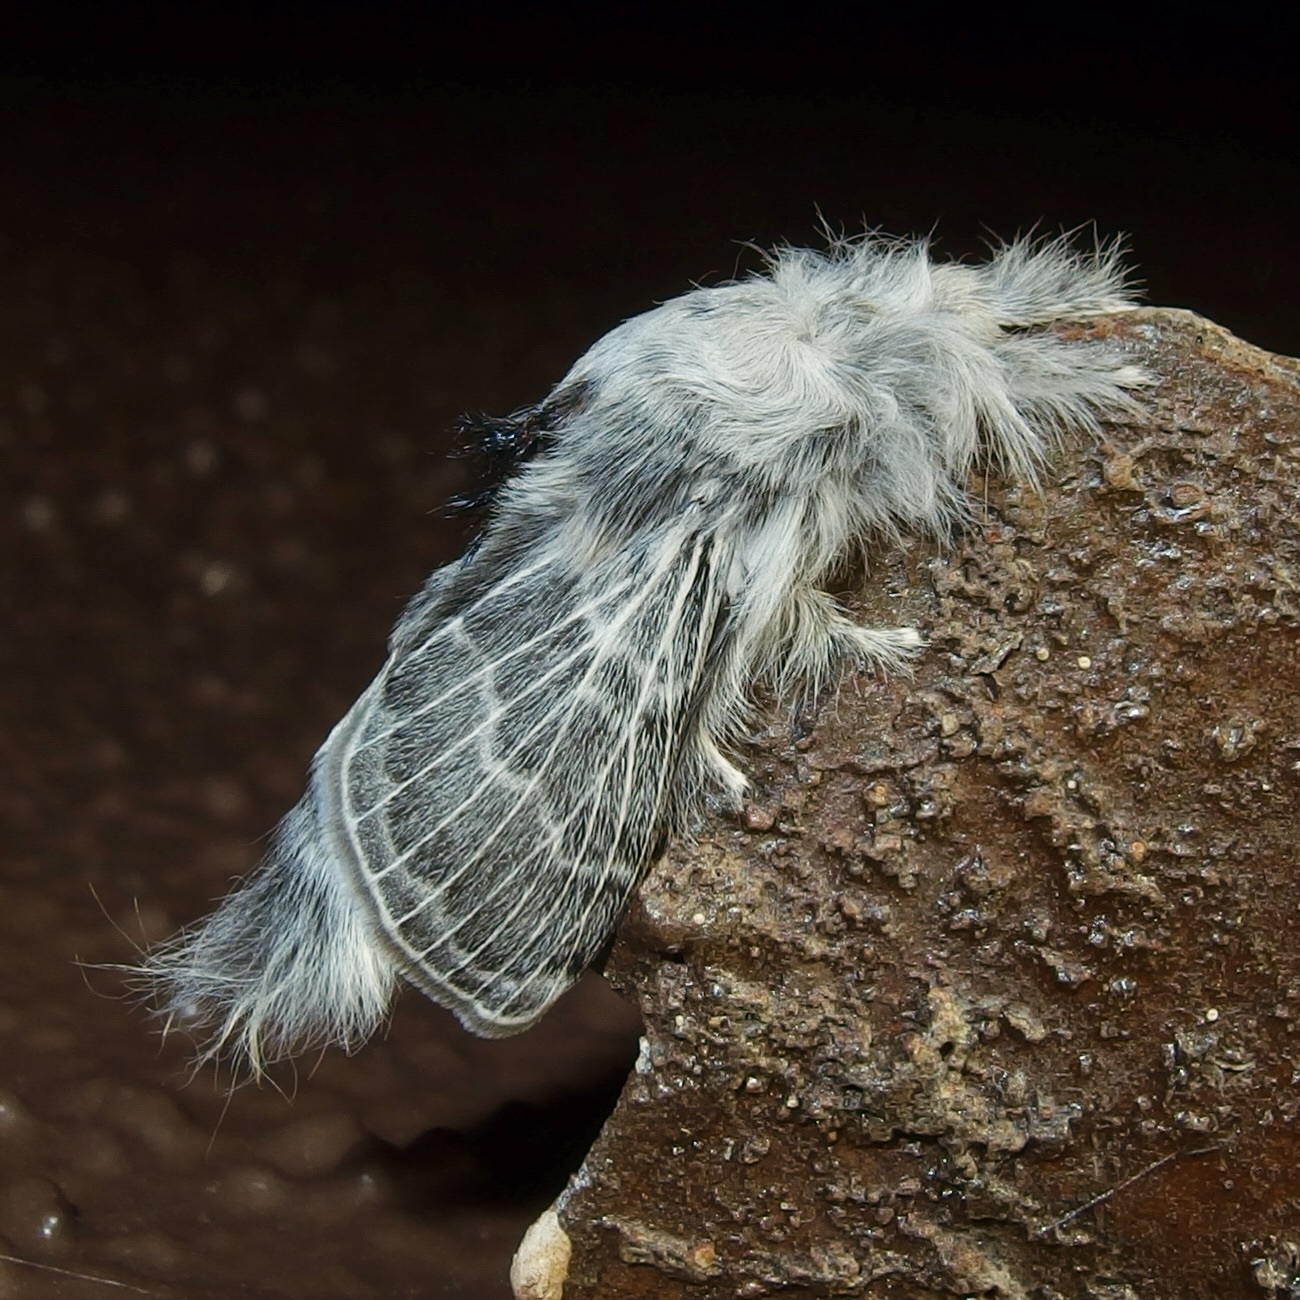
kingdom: Animalia
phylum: Arthropoda
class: Insecta
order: Lepidoptera
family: Lasiocampidae
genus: Apotolype
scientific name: Apotolype brevicrista
